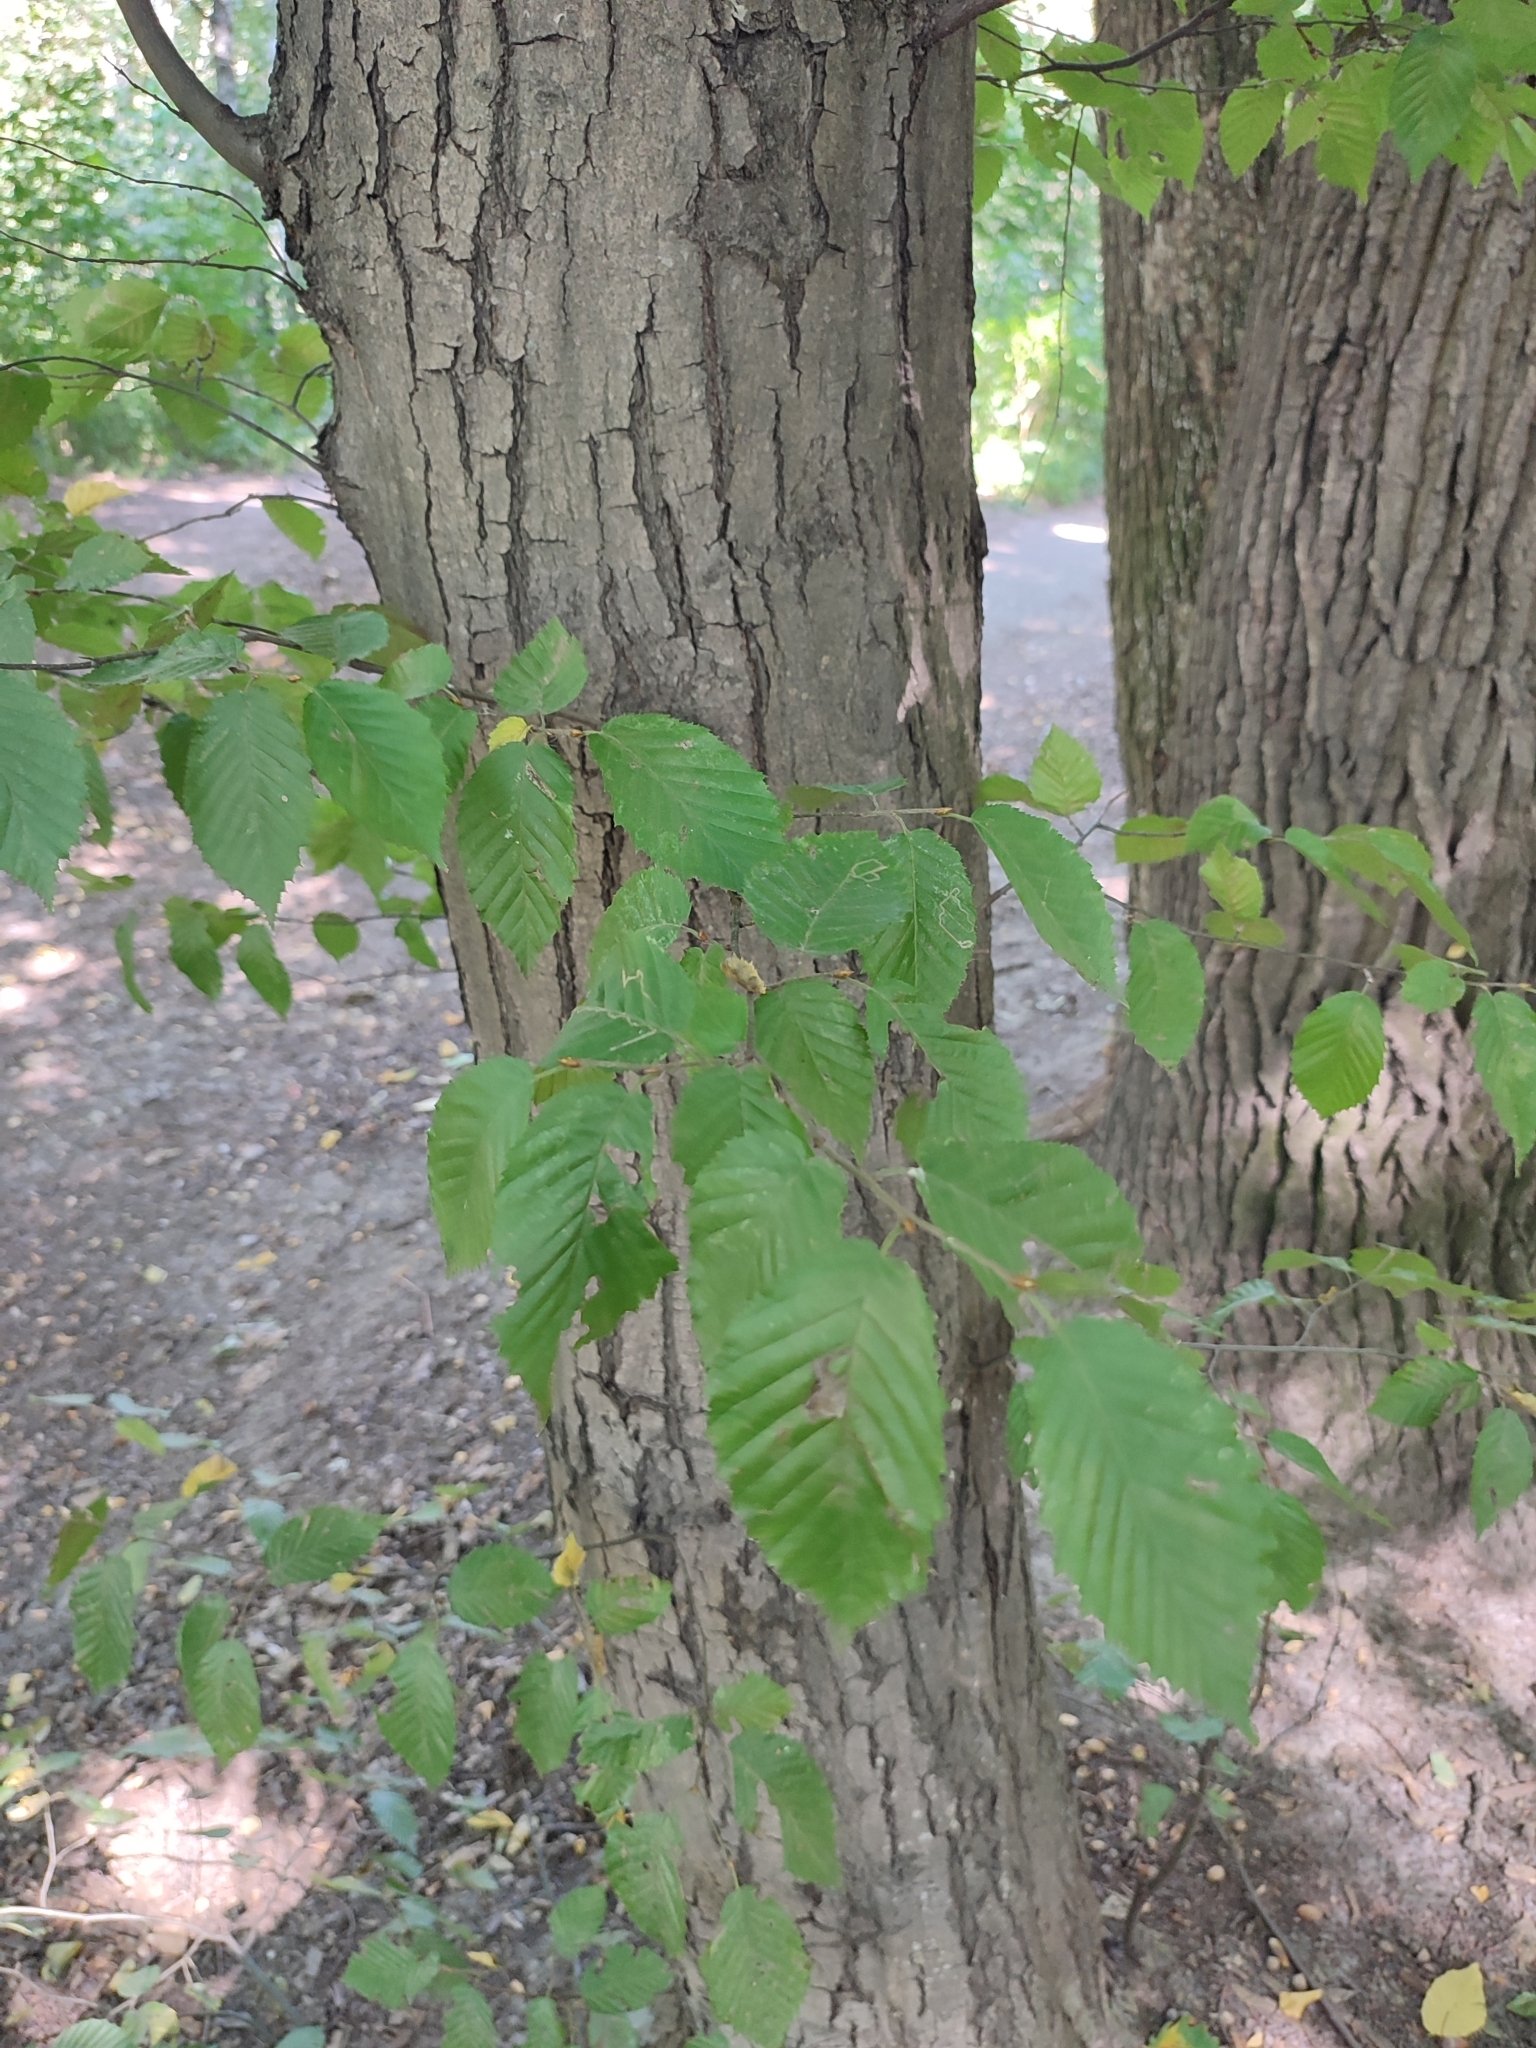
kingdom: Plantae
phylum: Tracheophyta
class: Magnoliopsida
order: Fagales
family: Betulaceae
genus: Carpinus
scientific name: Carpinus betulus
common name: Hornbeam
